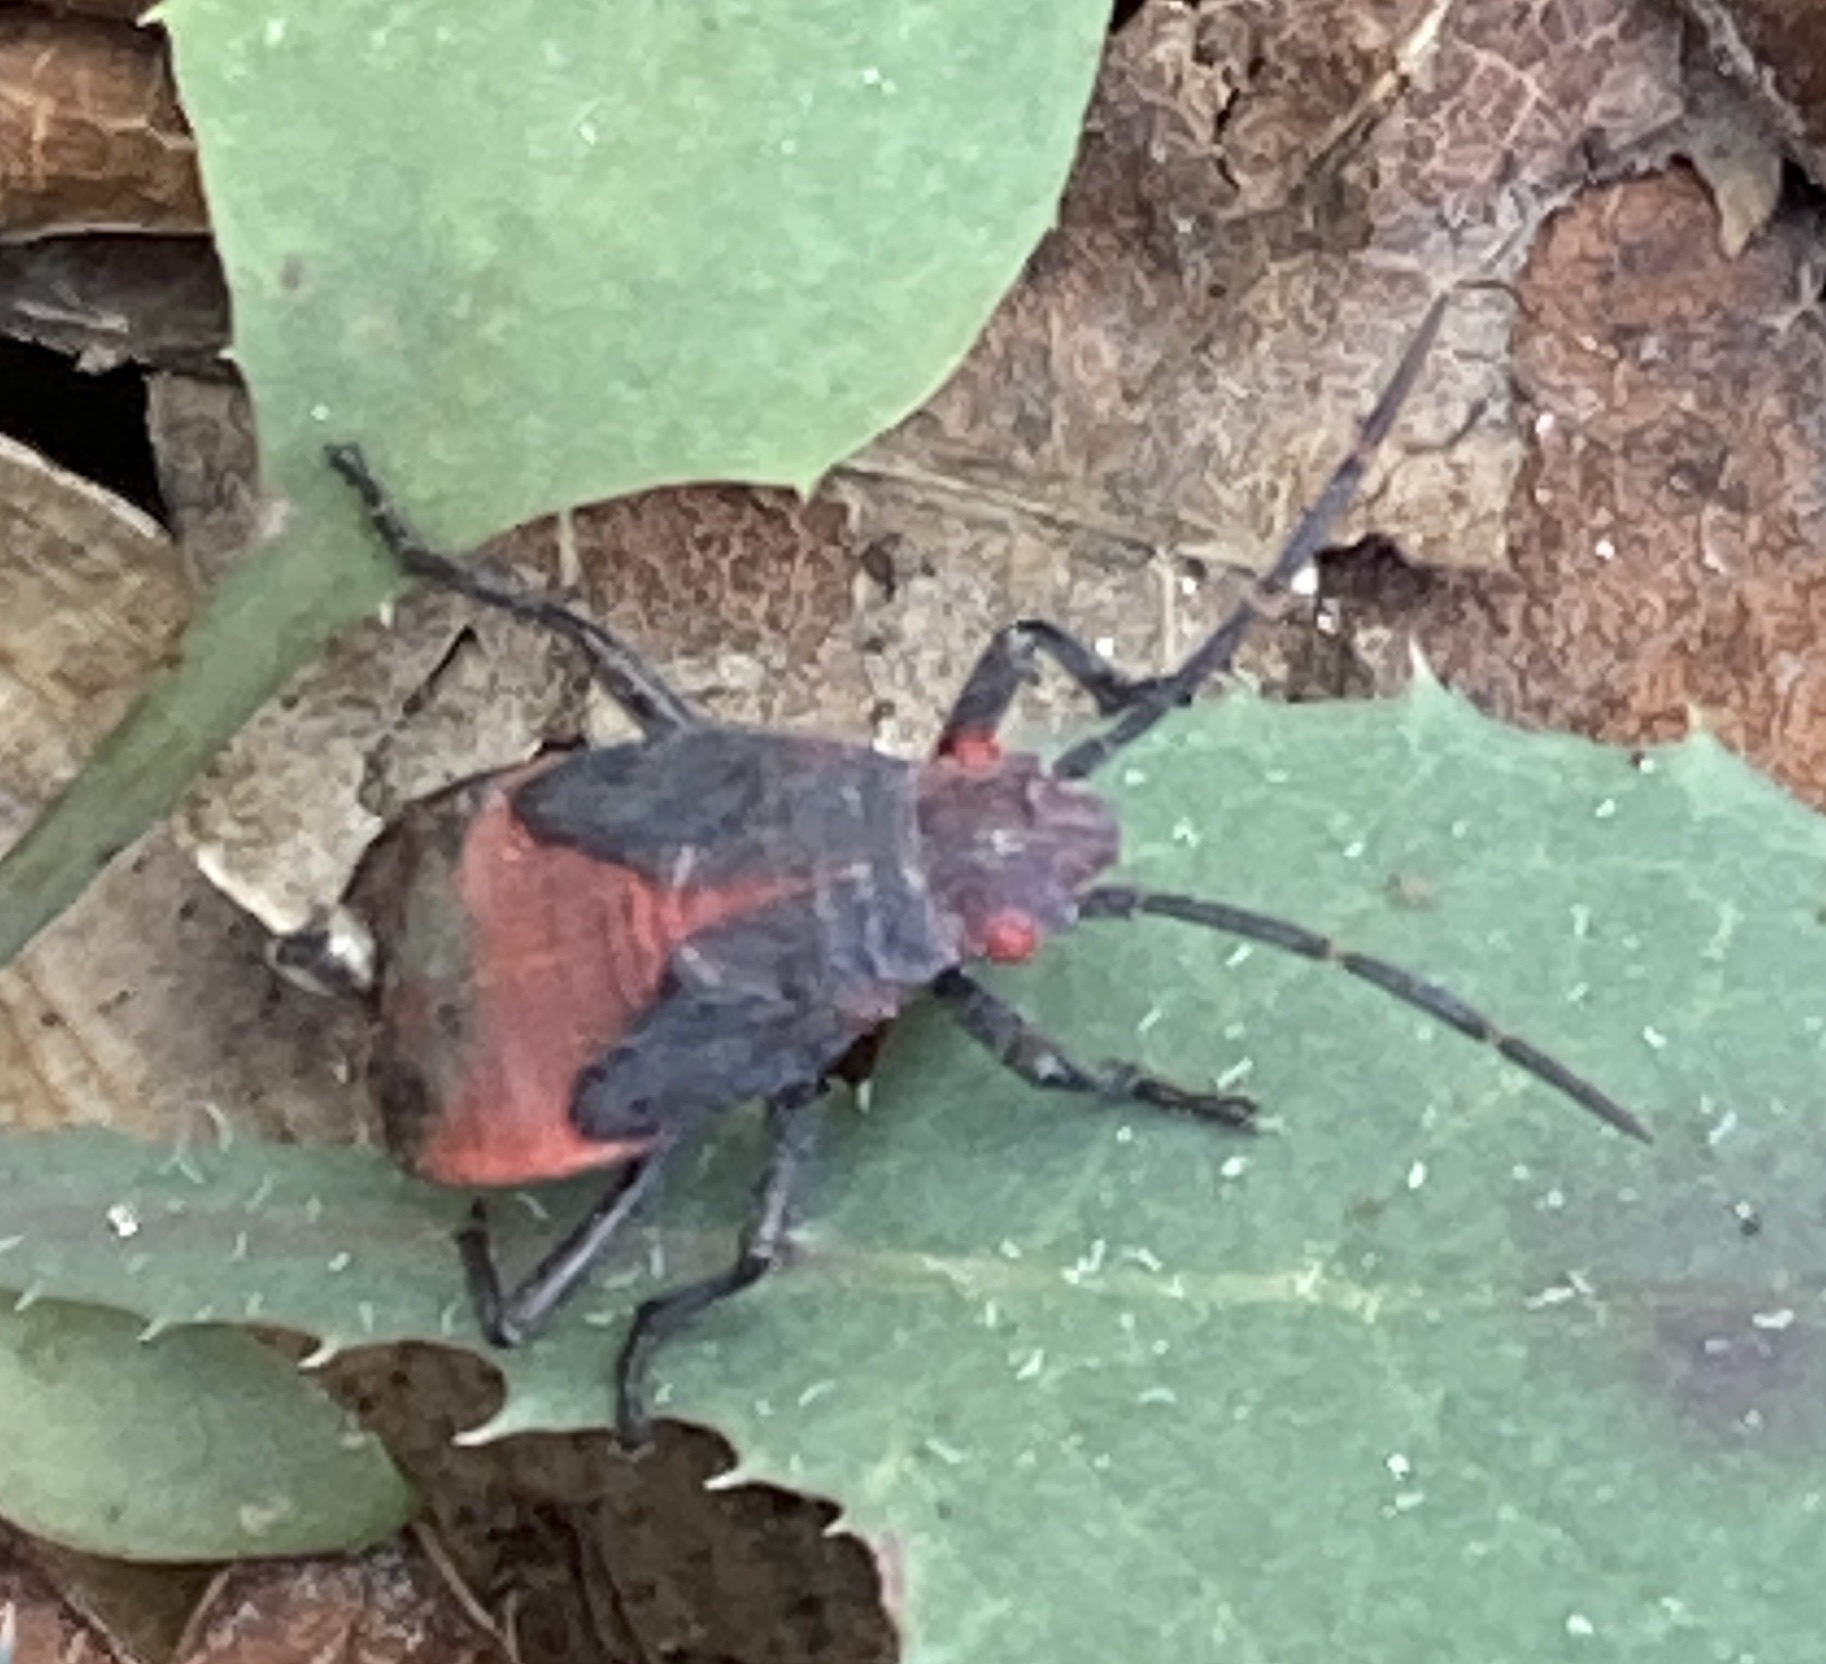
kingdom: Animalia
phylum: Arthropoda
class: Insecta
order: Hemiptera
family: Rhopalidae
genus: Jadera
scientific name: Jadera haematoloma
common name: Red-shouldered bug
